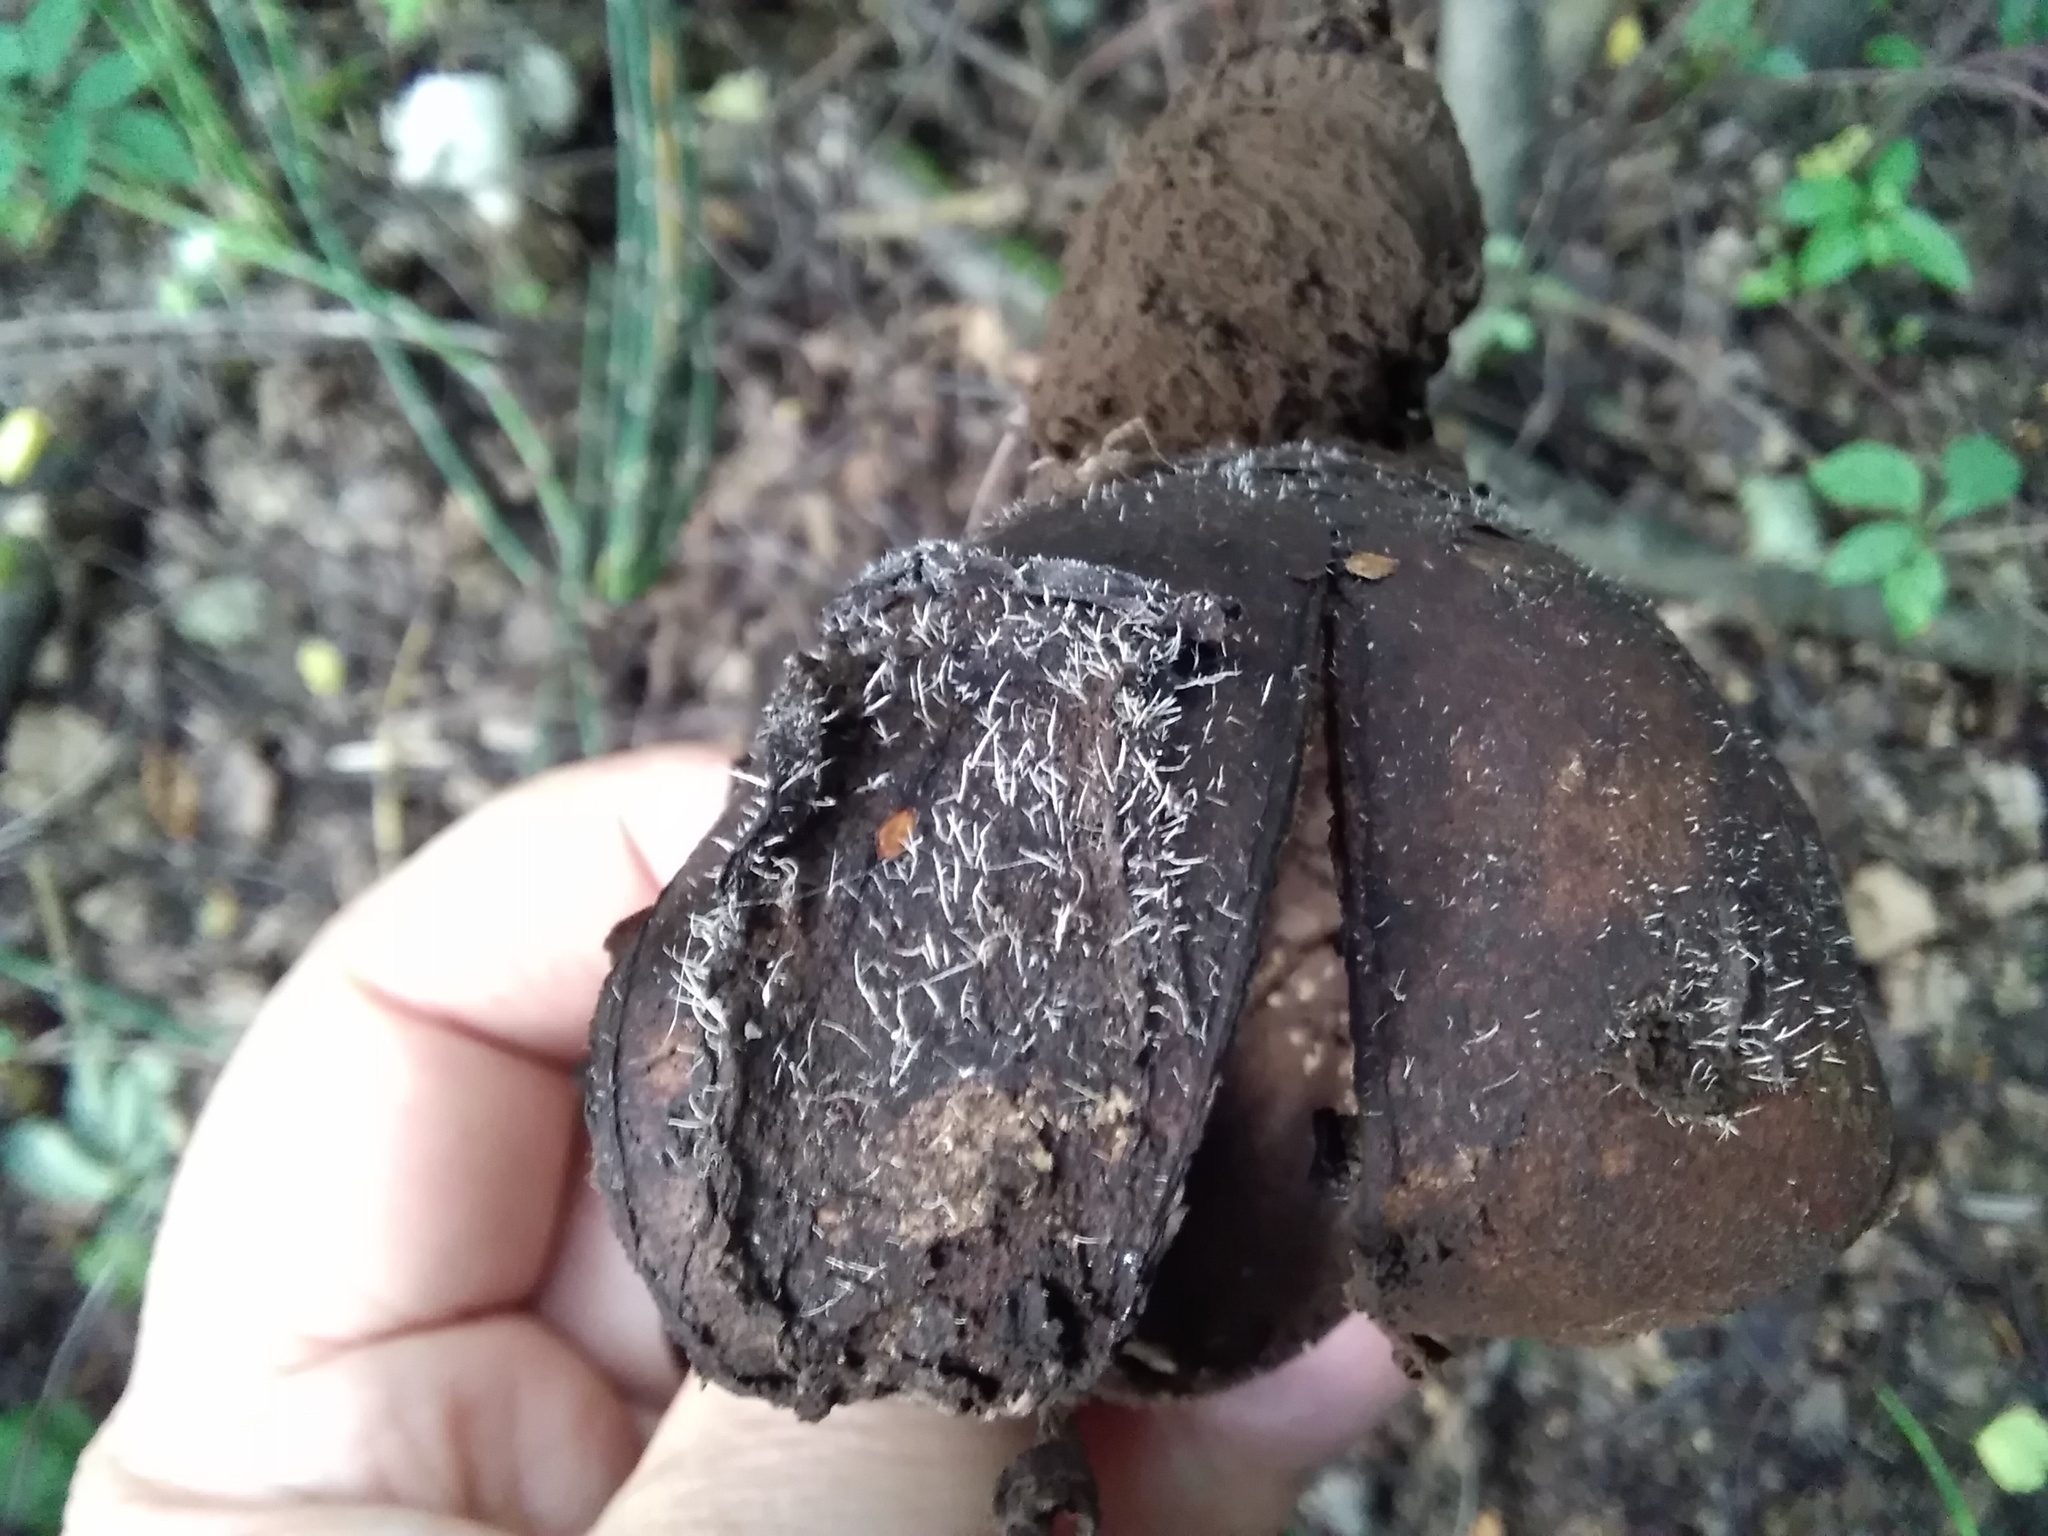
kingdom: Fungi
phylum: Ascomycota
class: Sordariomycetes
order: Hypocreales
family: Tilachlidiaceae
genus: Tilachlidium
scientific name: Tilachlidium brachiatum
